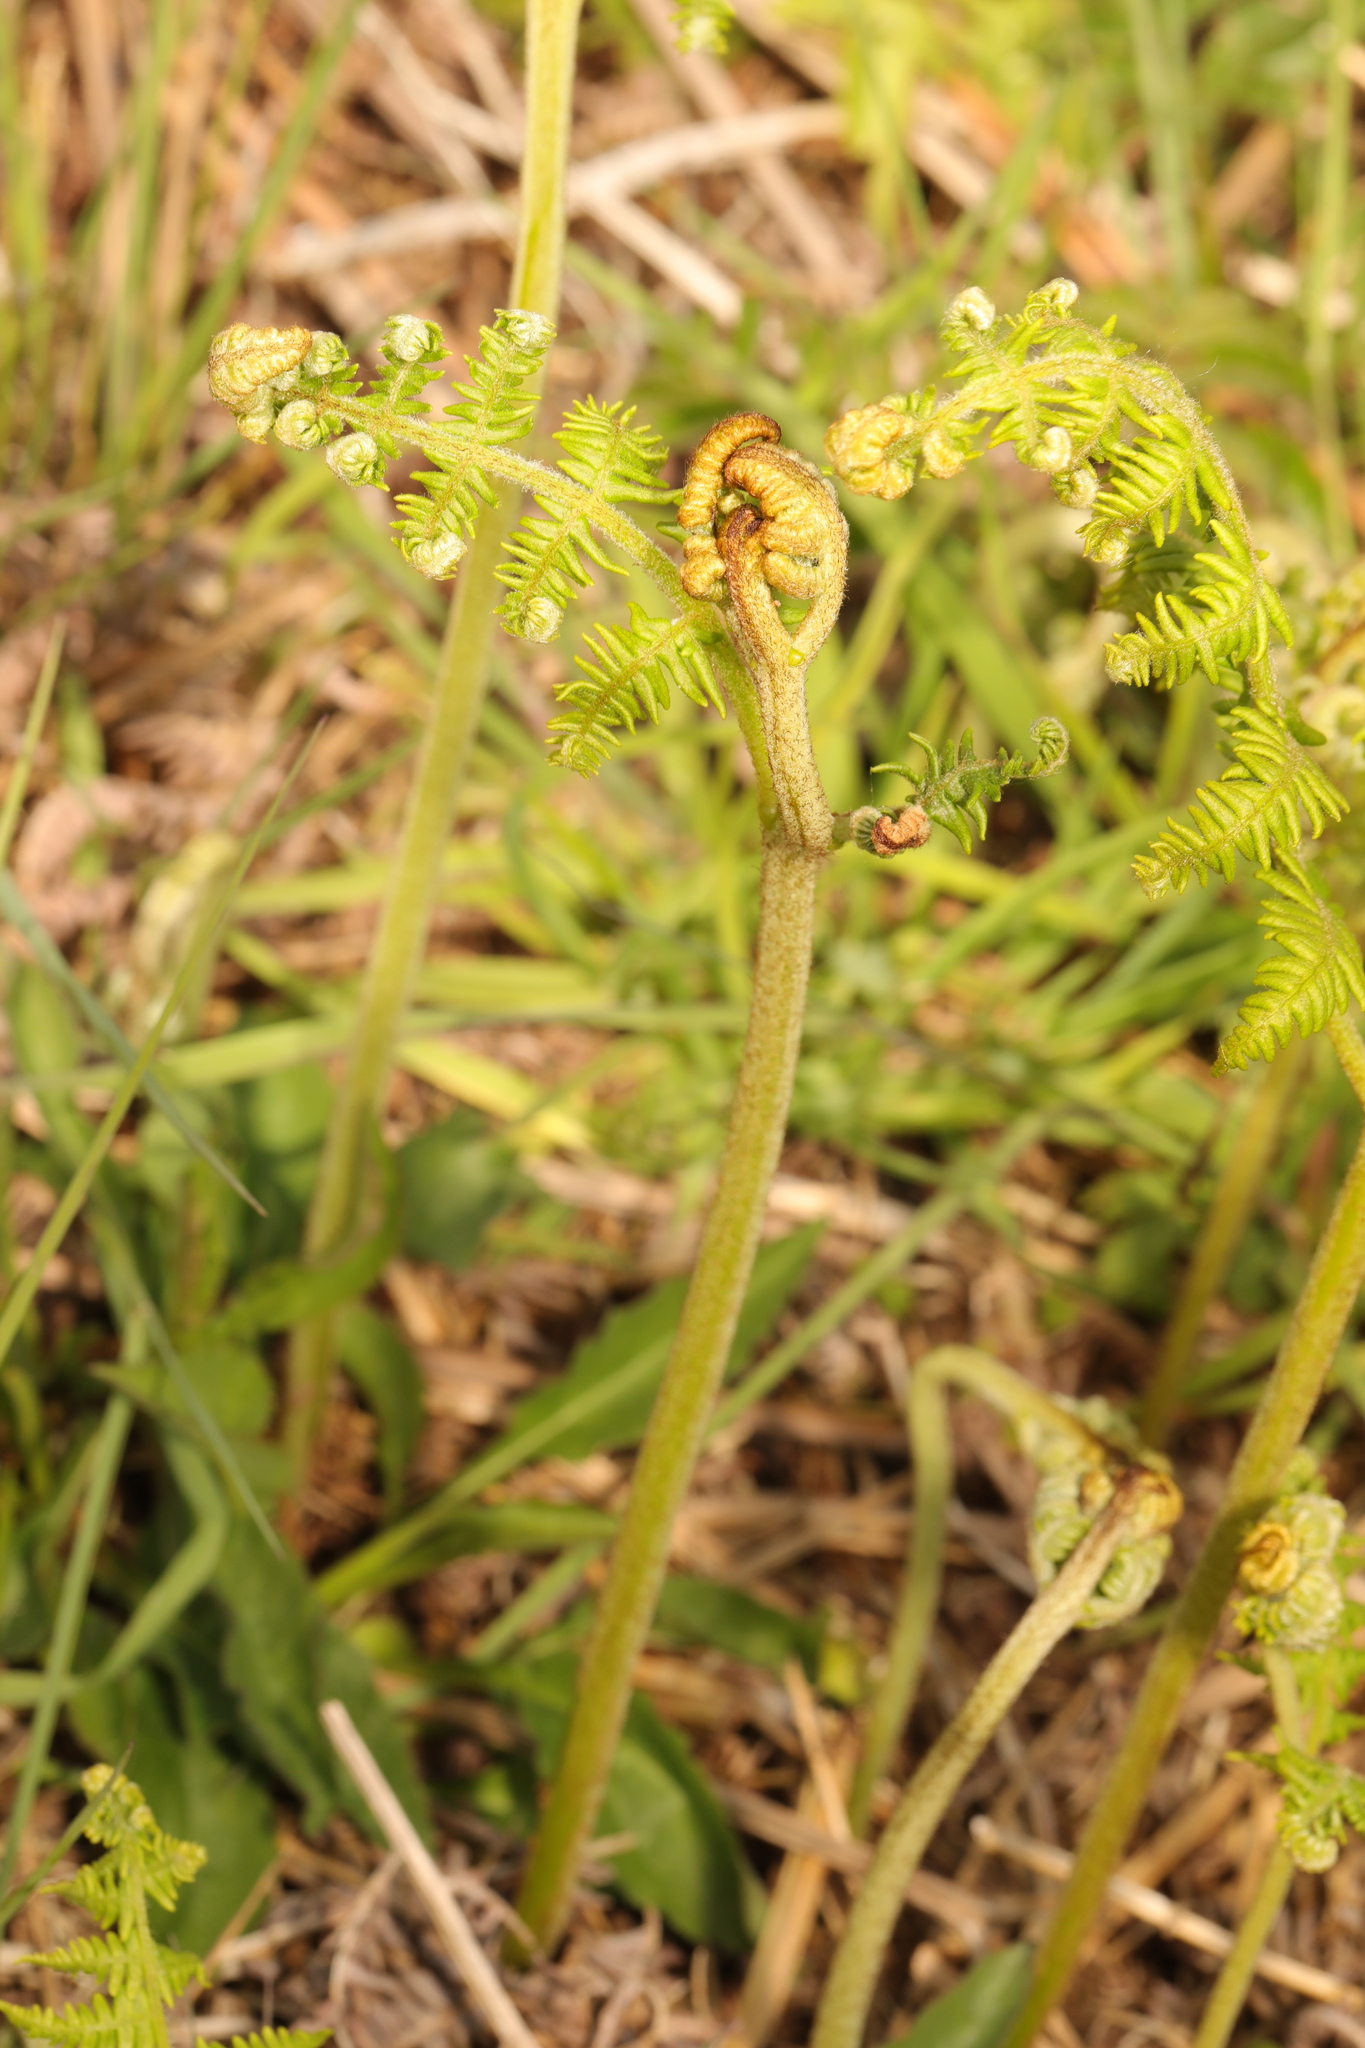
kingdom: Plantae
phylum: Tracheophyta
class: Polypodiopsida
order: Polypodiales
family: Dennstaedtiaceae
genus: Pteridium
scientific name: Pteridium aquilinum
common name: Bracken
